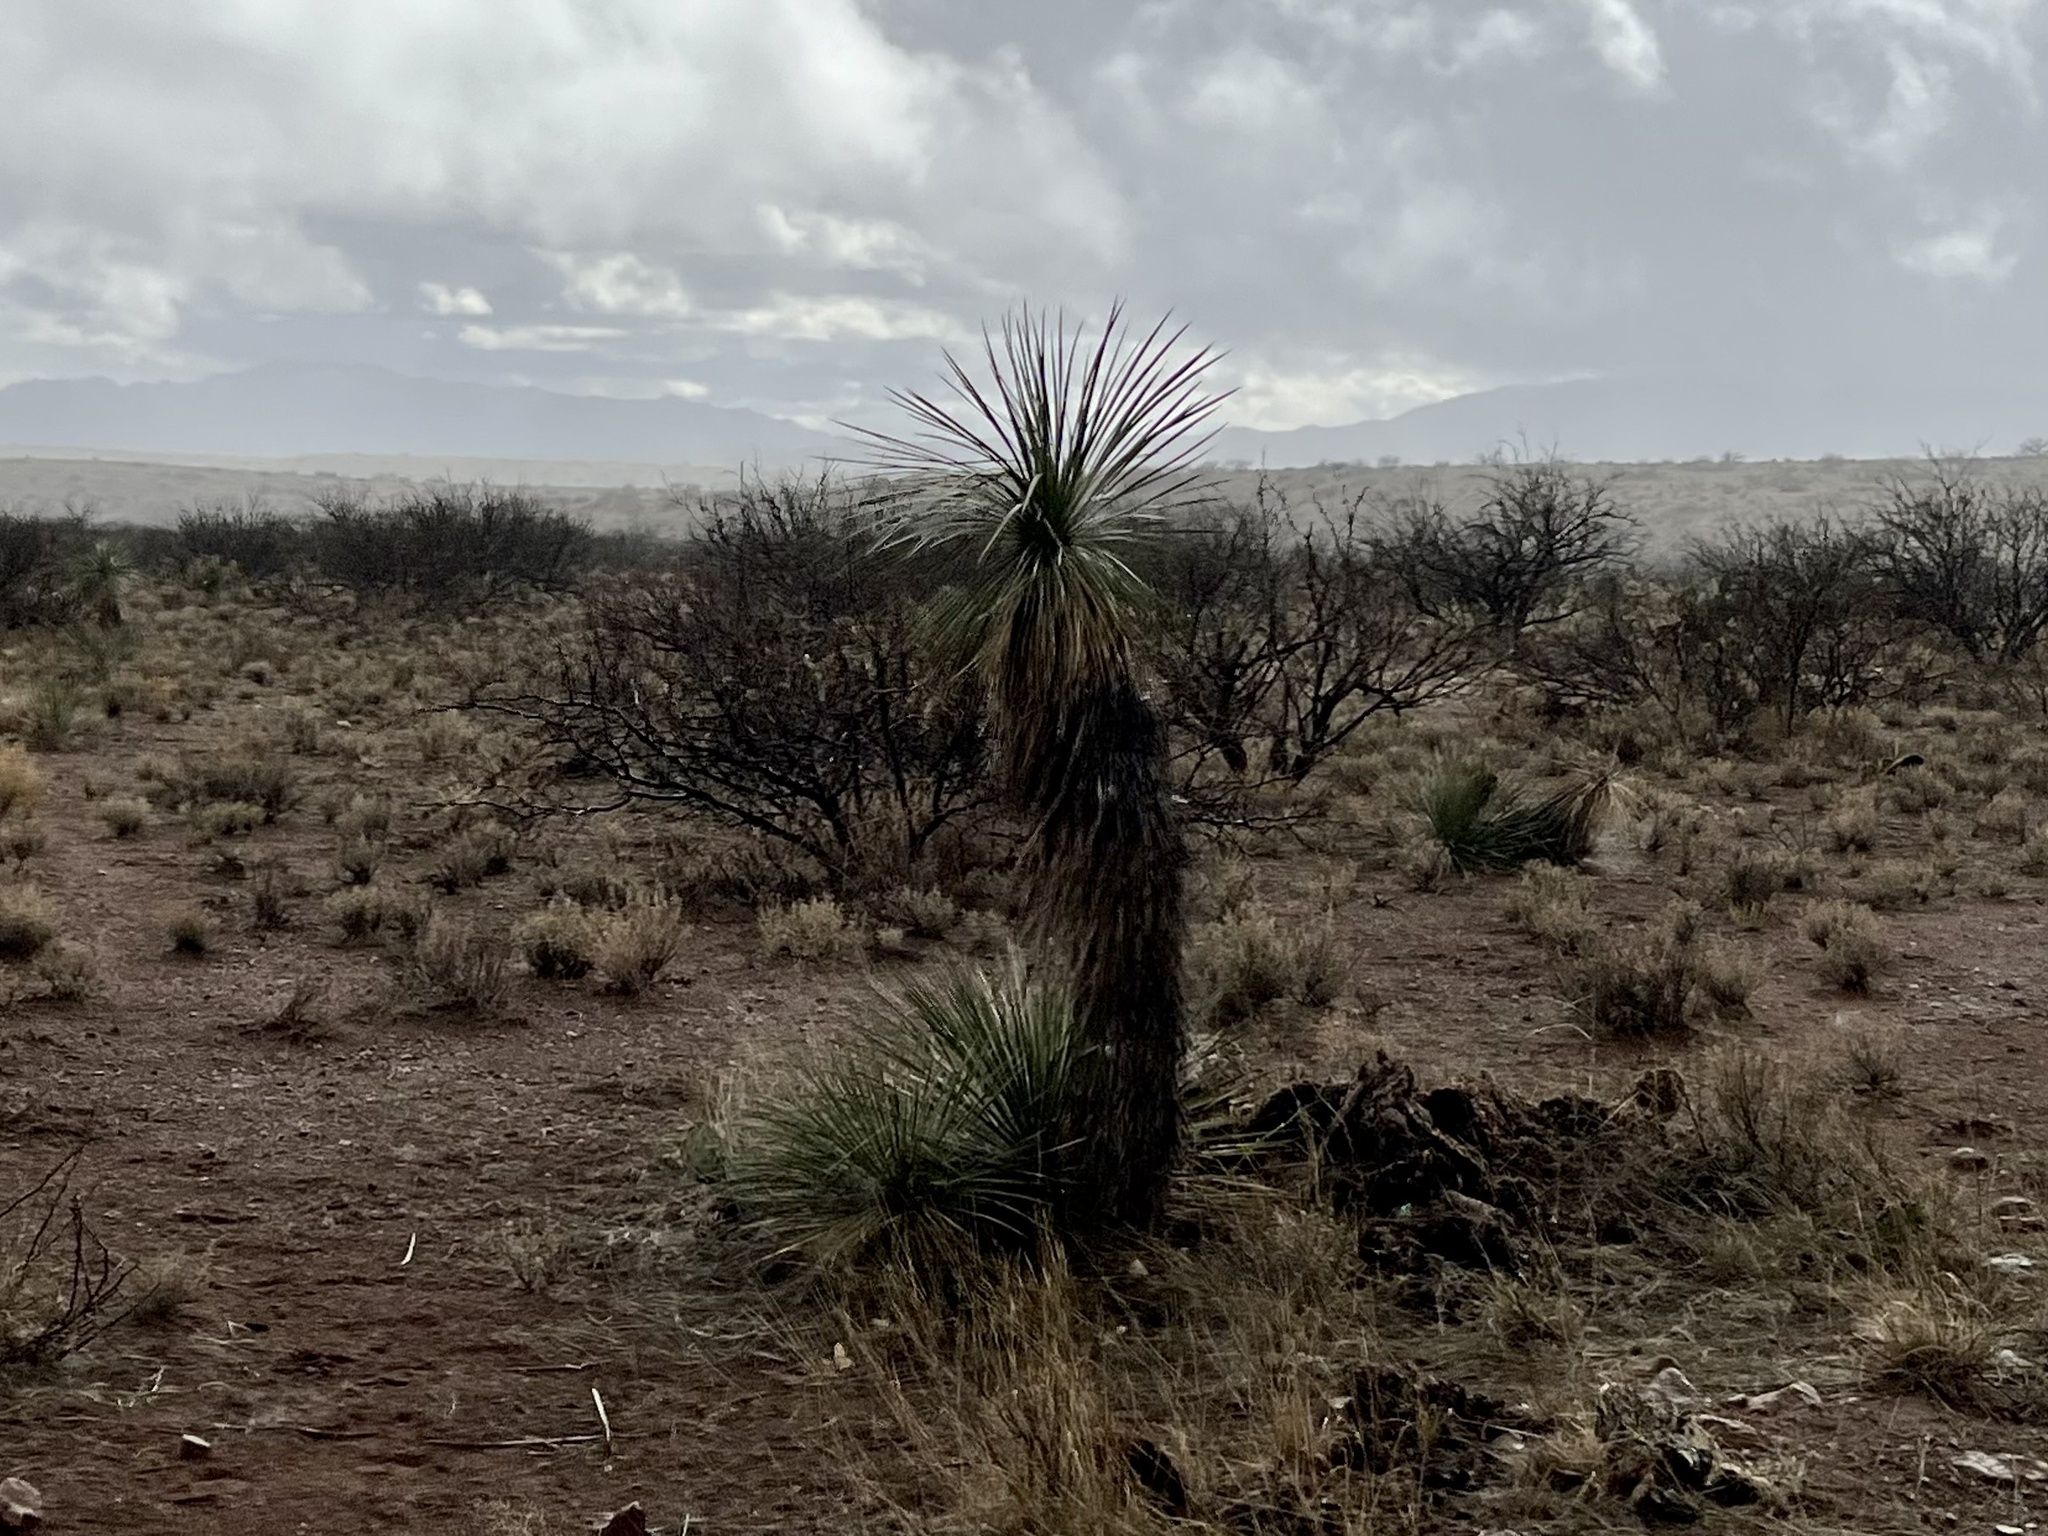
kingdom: Plantae
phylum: Tracheophyta
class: Liliopsida
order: Asparagales
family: Asparagaceae
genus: Yucca
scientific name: Yucca elata
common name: Palmella
